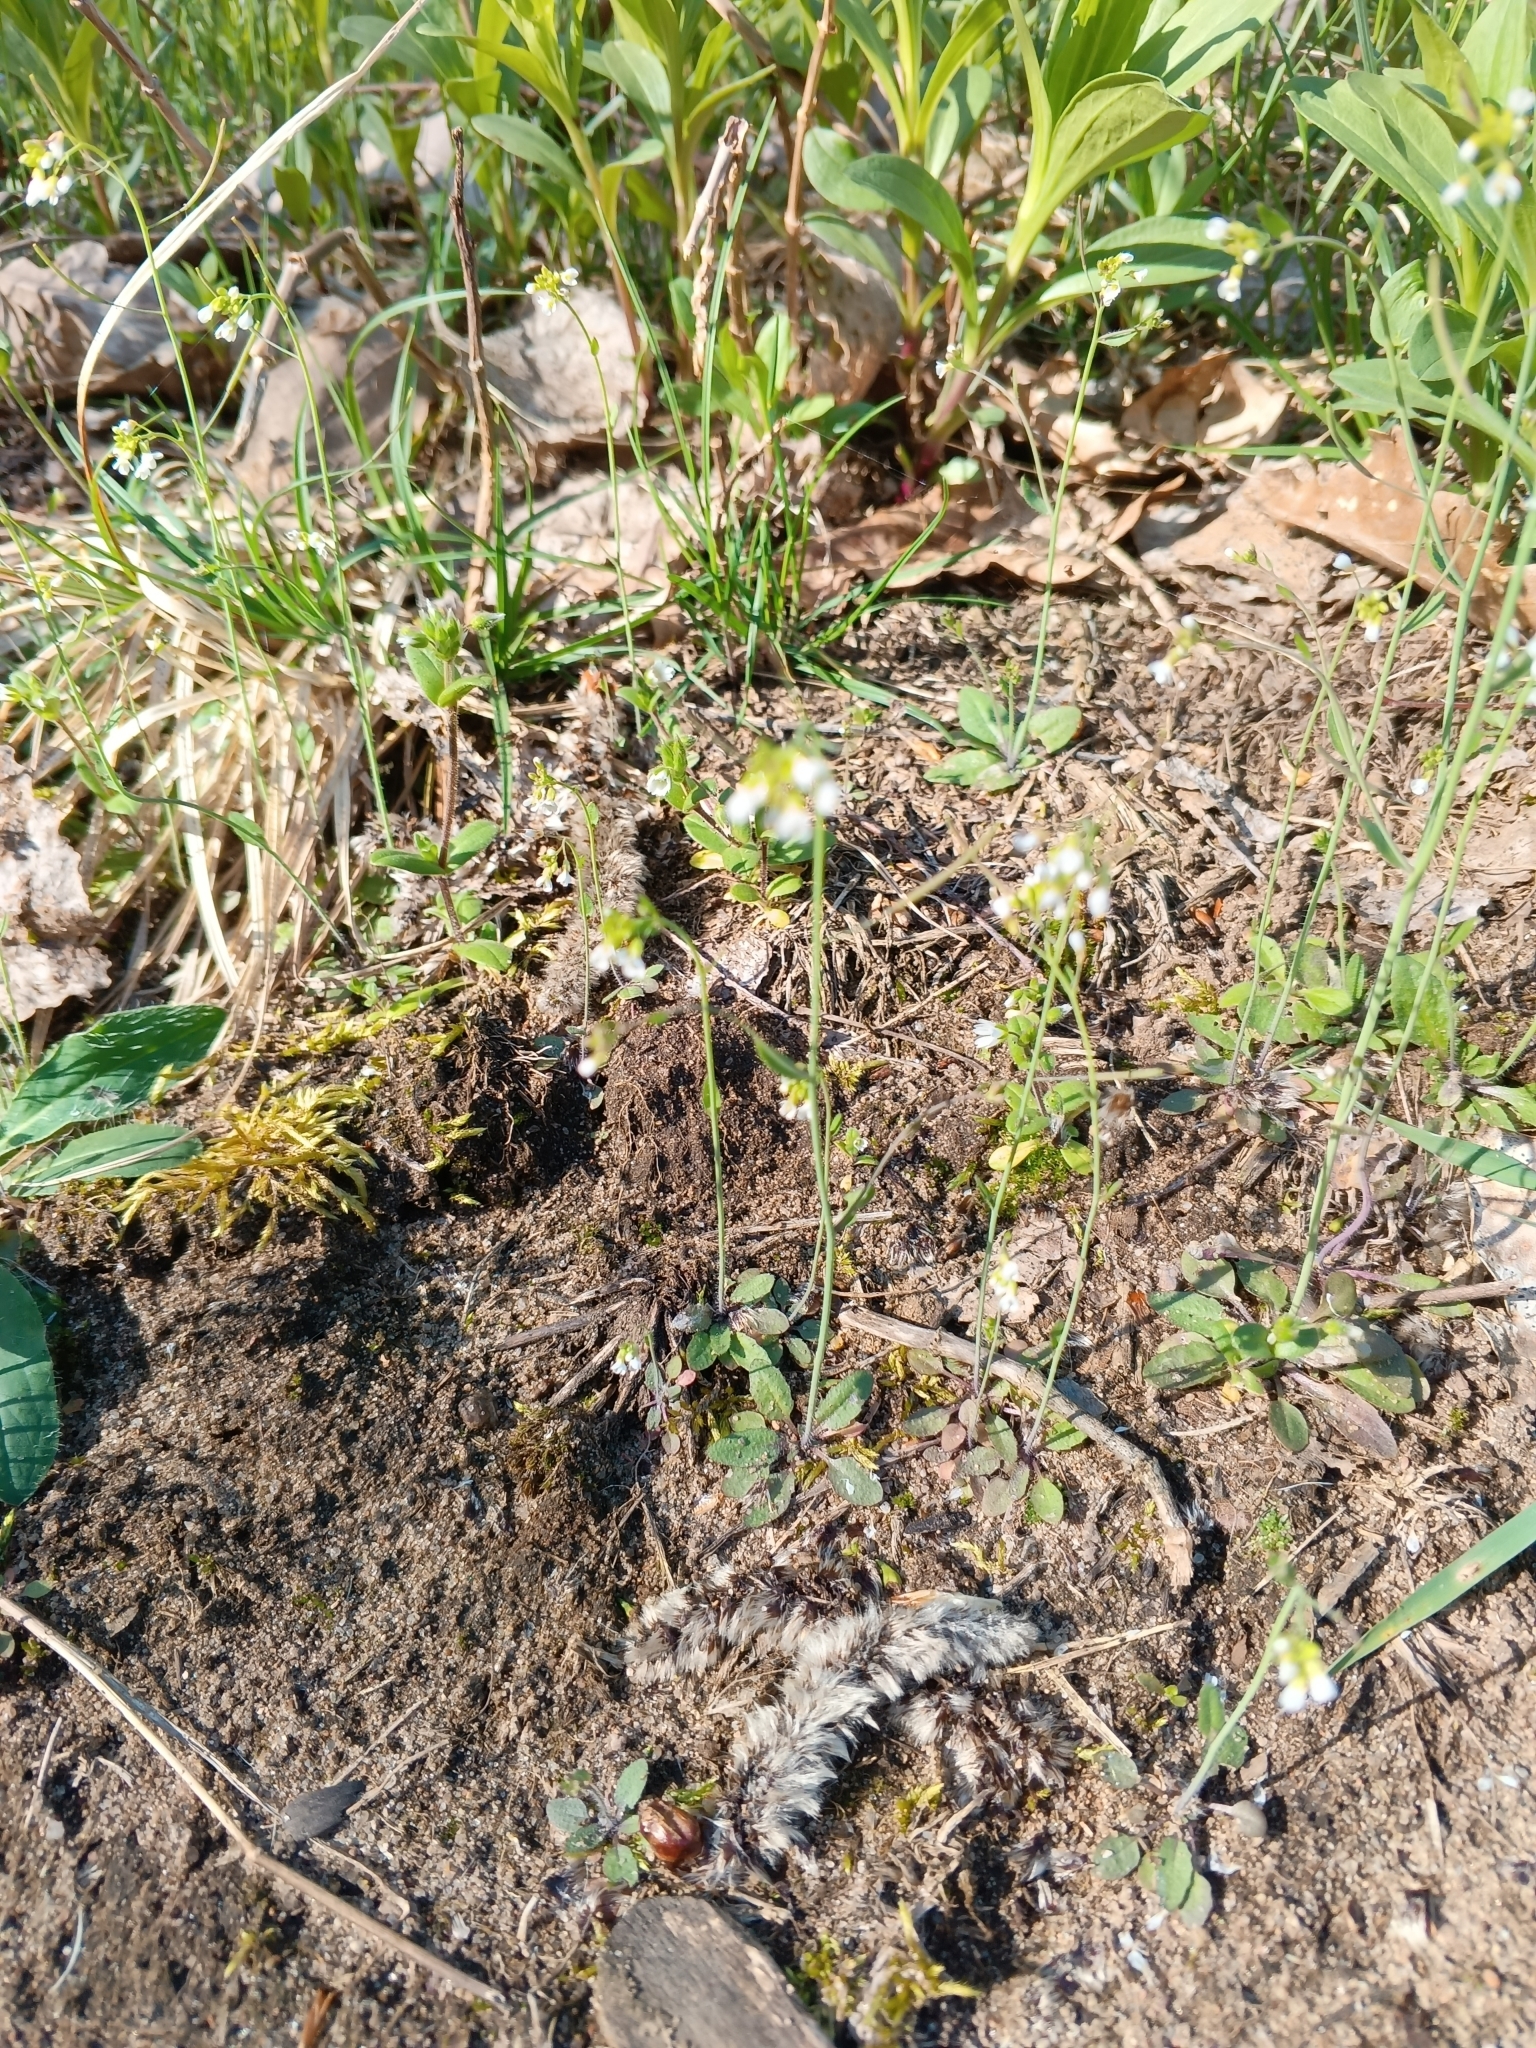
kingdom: Plantae
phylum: Tracheophyta
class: Magnoliopsida
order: Brassicales
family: Brassicaceae
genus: Arabidopsis
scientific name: Arabidopsis thaliana
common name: Thale cress
